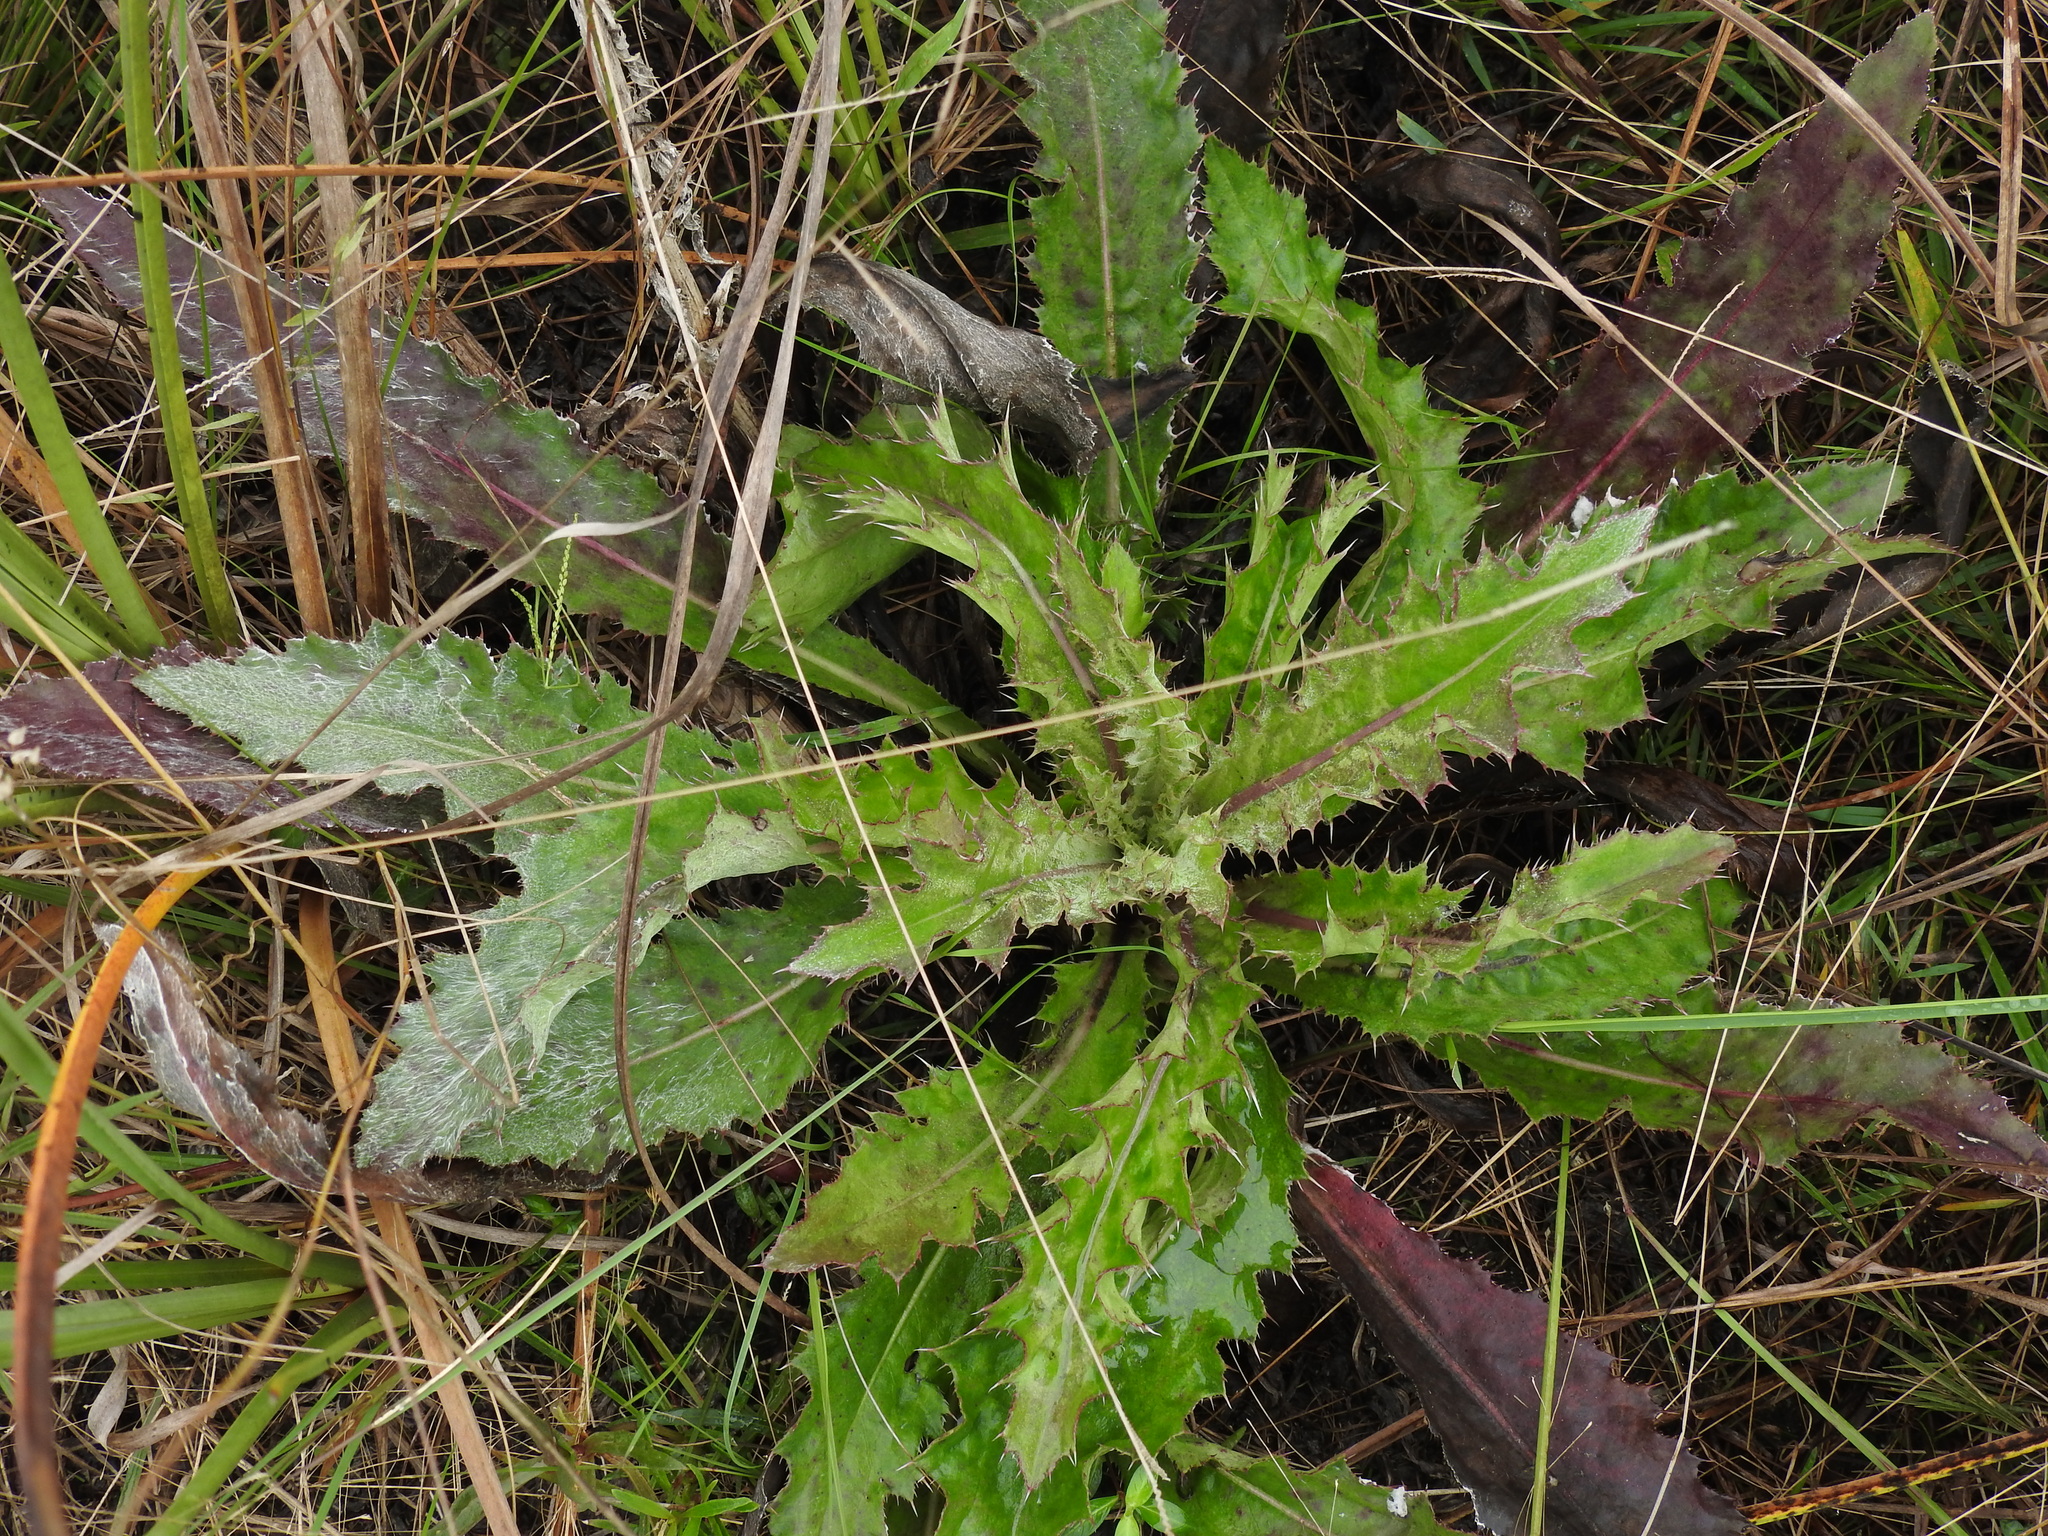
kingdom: Plantae
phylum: Tracheophyta
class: Magnoliopsida
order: Asterales
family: Asteraceae
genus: Cirsium
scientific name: Cirsium horridulum
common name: Bristly thistle
